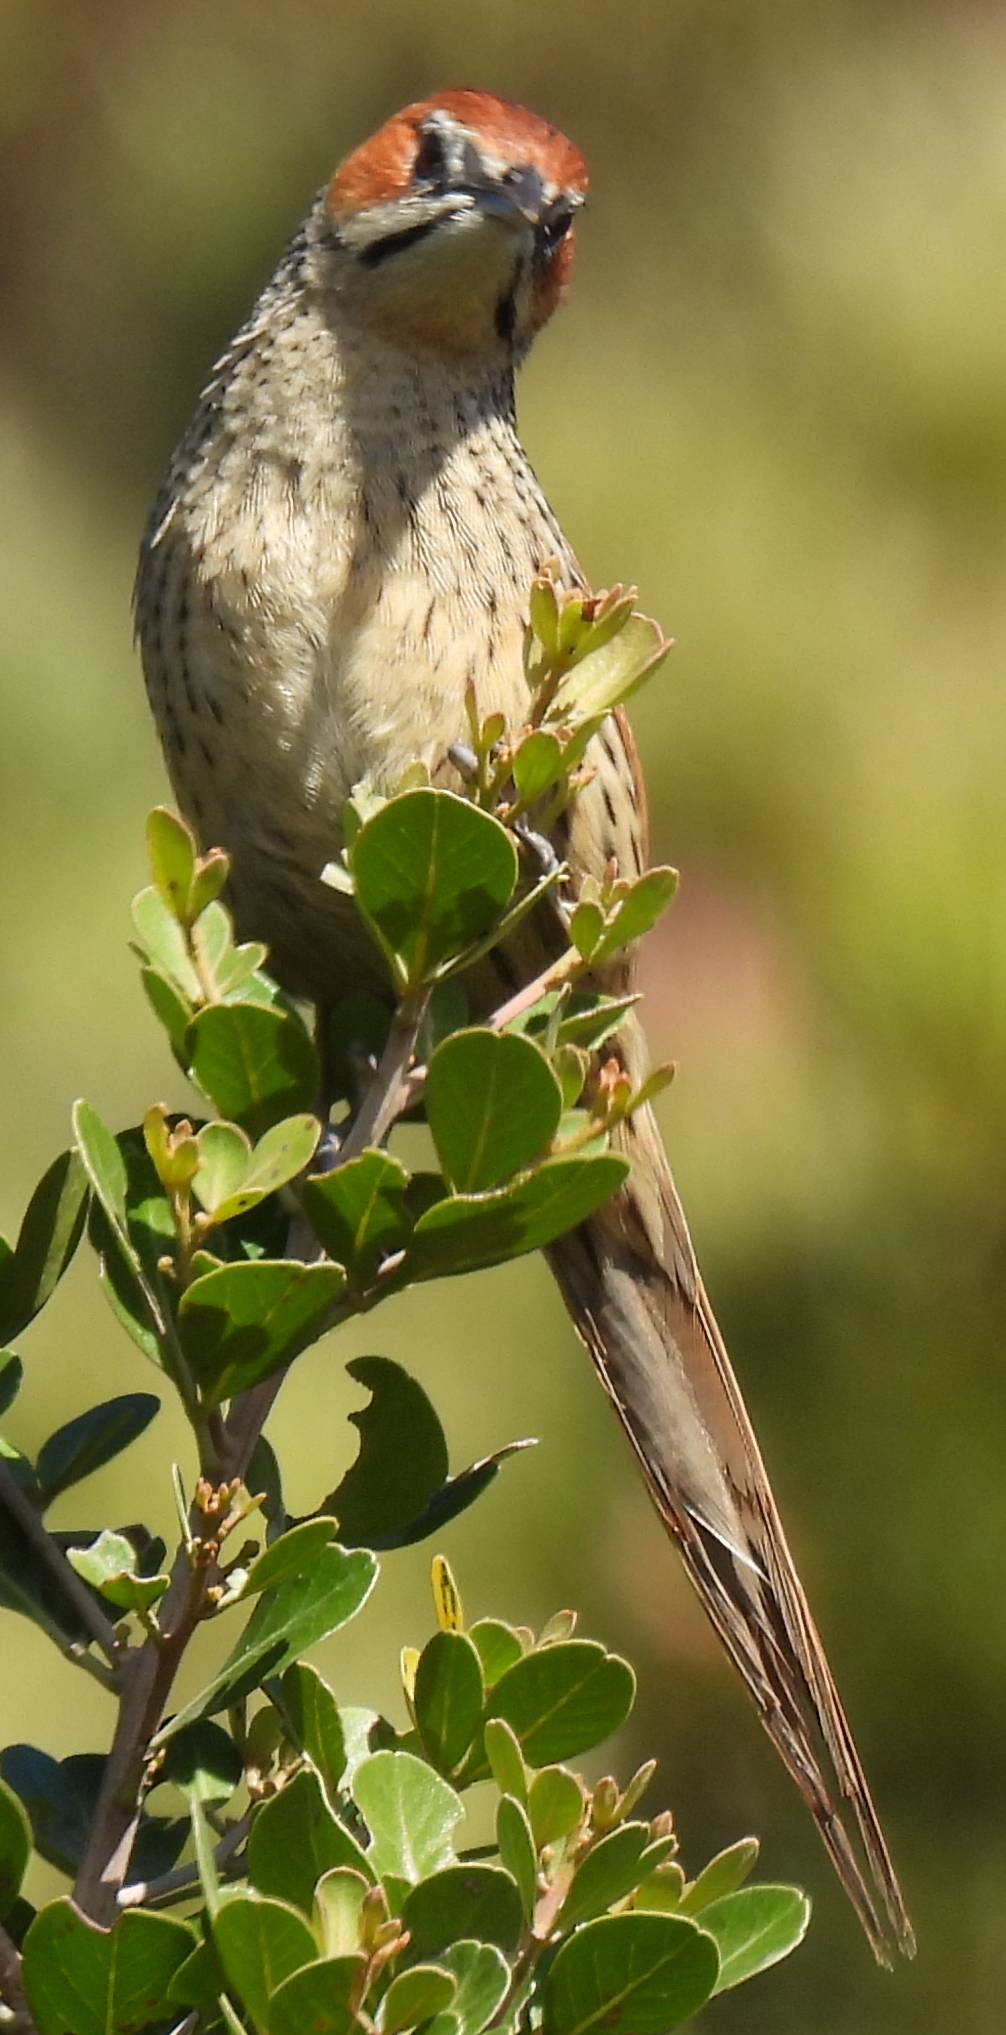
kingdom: Animalia
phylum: Chordata
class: Aves
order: Passeriformes
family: Macrosphenidae
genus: Sphenoeacus
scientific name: Sphenoeacus afer
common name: Cape grassbird
